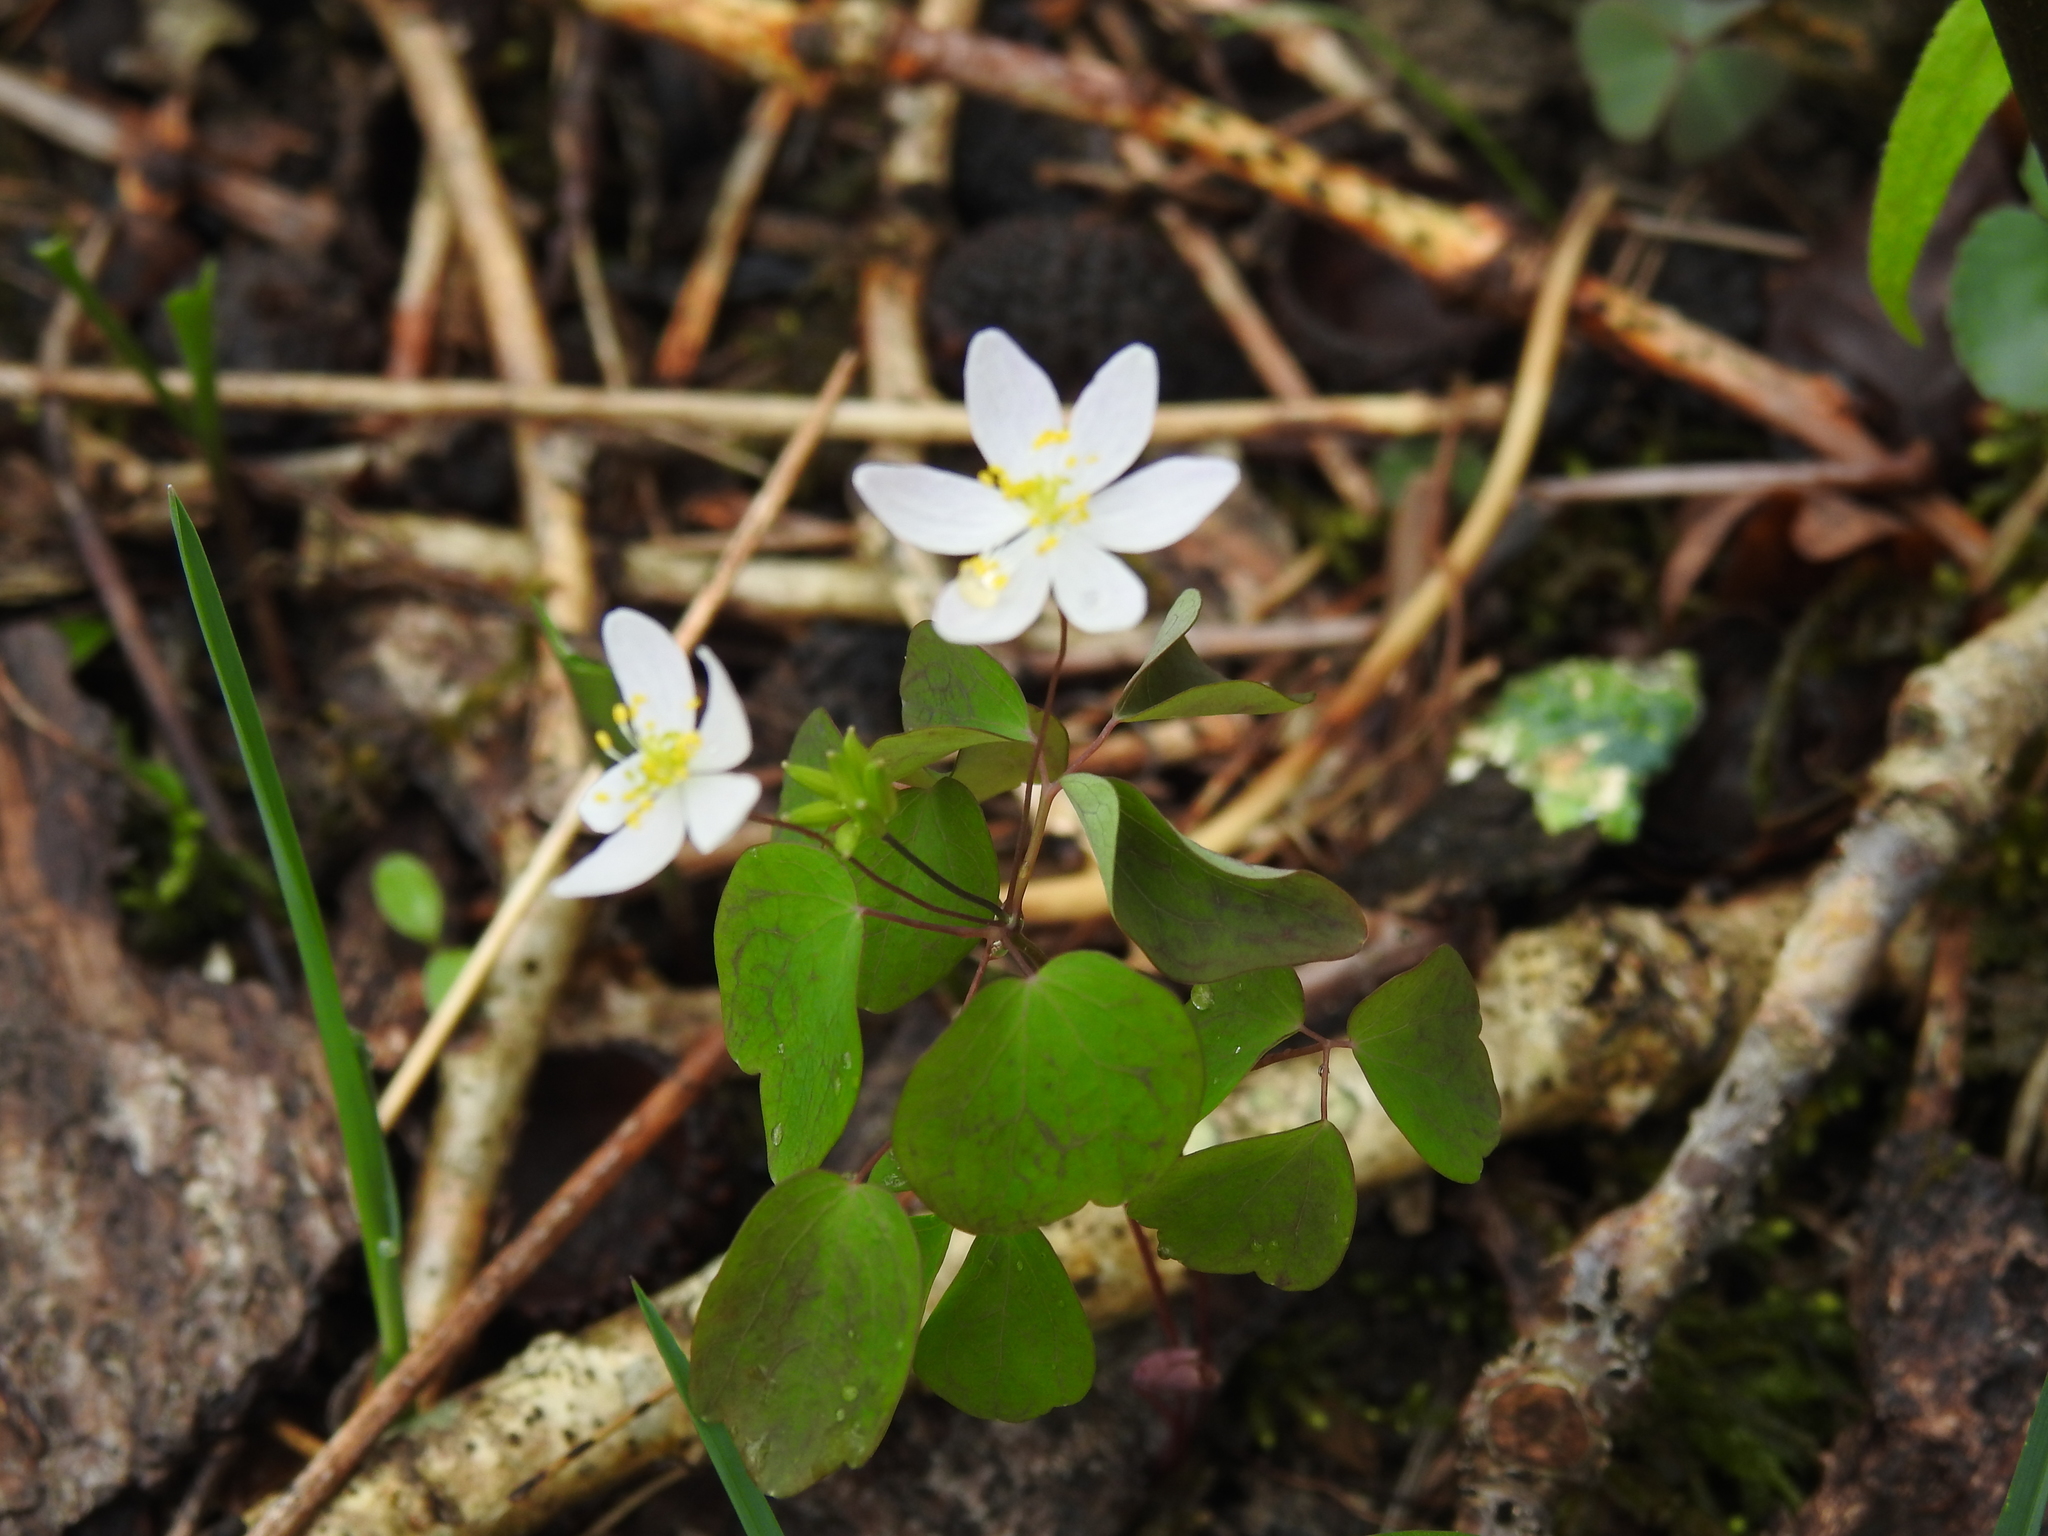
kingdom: Plantae
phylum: Tracheophyta
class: Magnoliopsida
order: Ranunculales
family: Ranunculaceae
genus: Thalictrum
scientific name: Thalictrum thalictroides
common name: Rue-anemone
